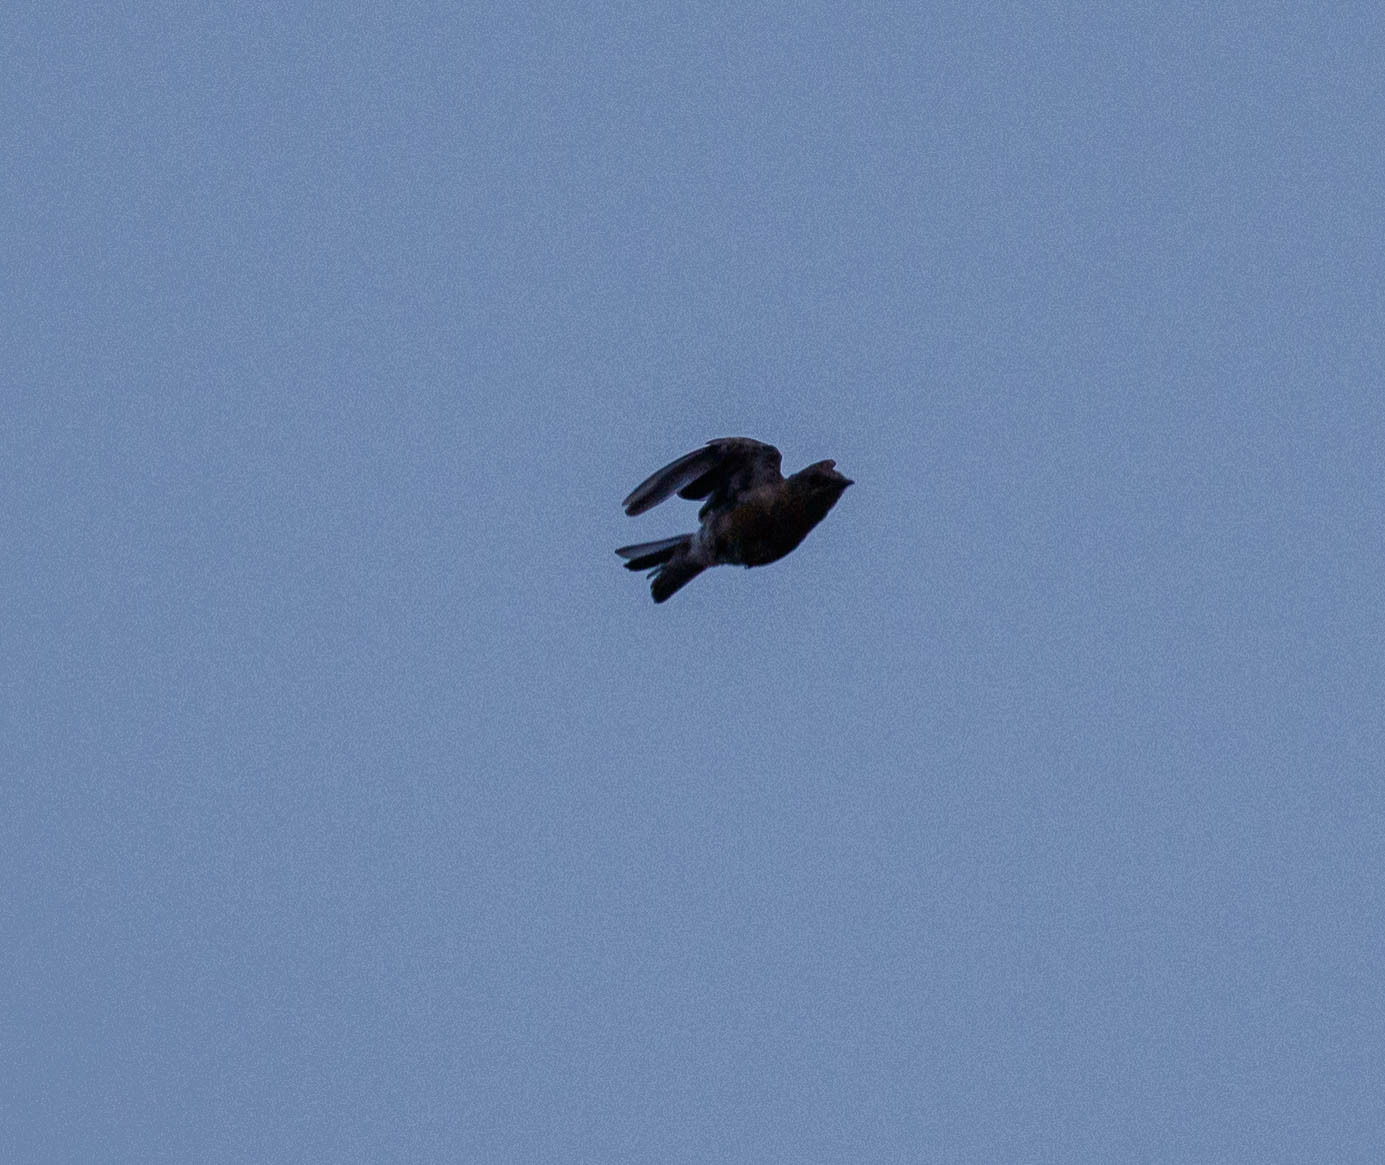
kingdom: Animalia
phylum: Chordata
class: Aves
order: Passeriformes
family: Turdidae
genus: Turdus
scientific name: Turdus migratorius
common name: American robin
